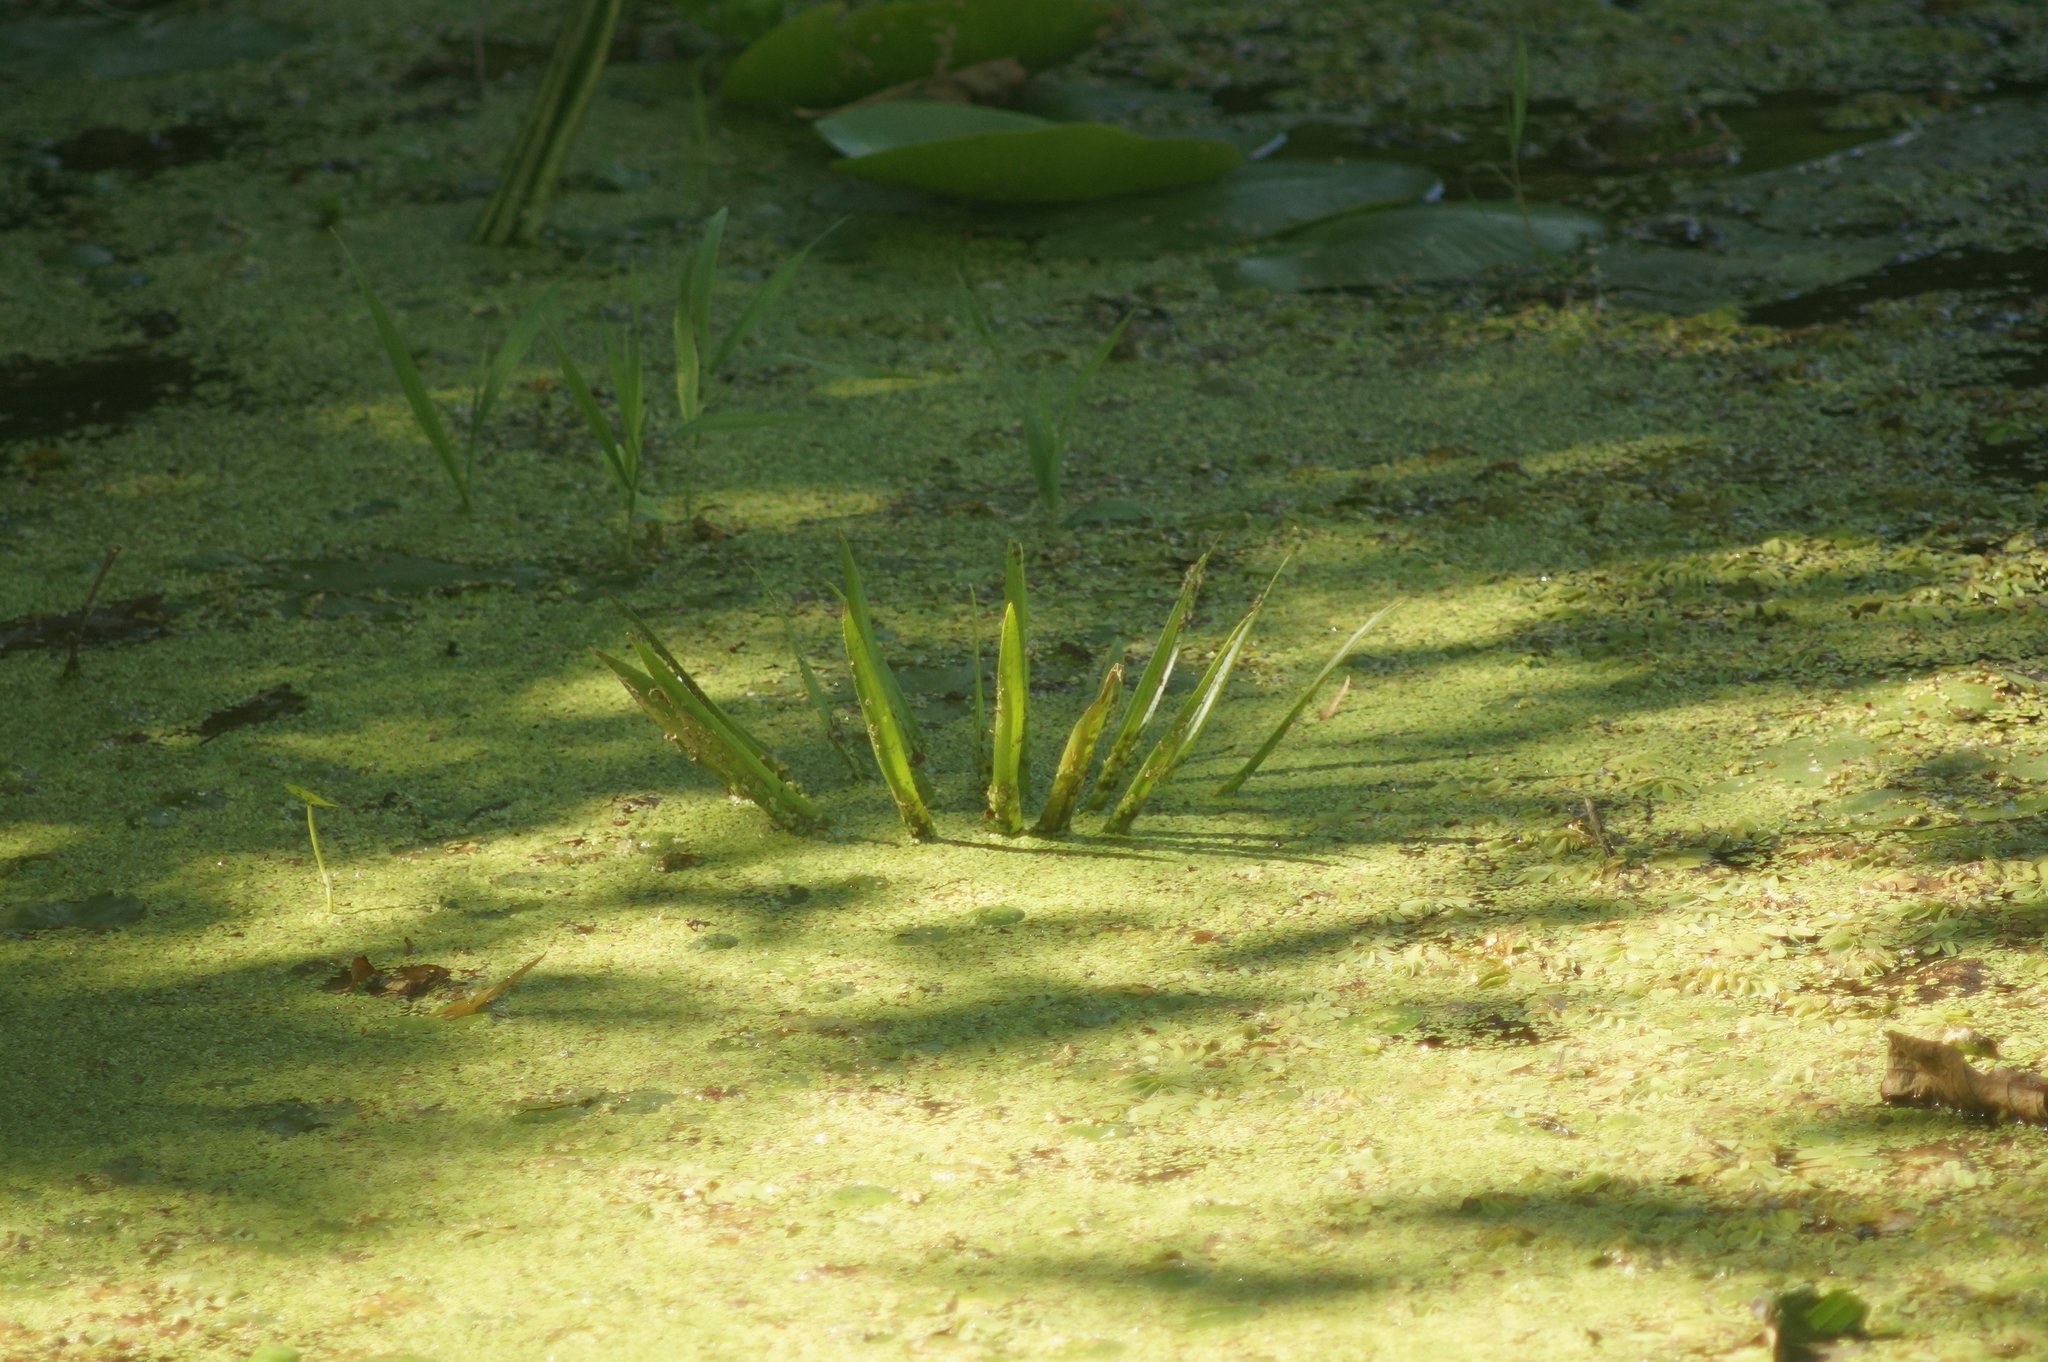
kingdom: Plantae
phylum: Tracheophyta
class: Liliopsida
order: Alismatales
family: Hydrocharitaceae
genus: Stratiotes
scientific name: Stratiotes aloides
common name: Water-soldier
